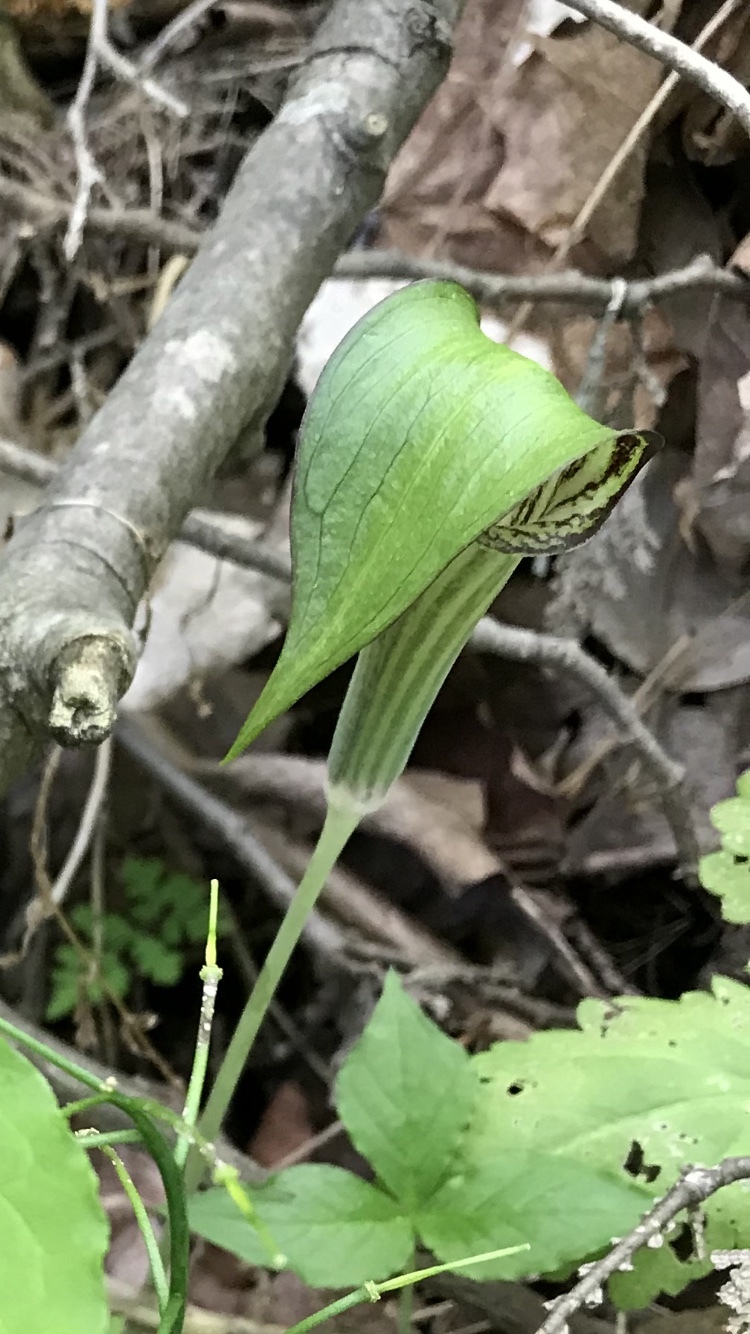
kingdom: Plantae
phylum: Tracheophyta
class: Liliopsida
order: Alismatales
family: Araceae
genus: Arisaema
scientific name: Arisaema triphyllum
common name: Jack-in-the-pulpit
